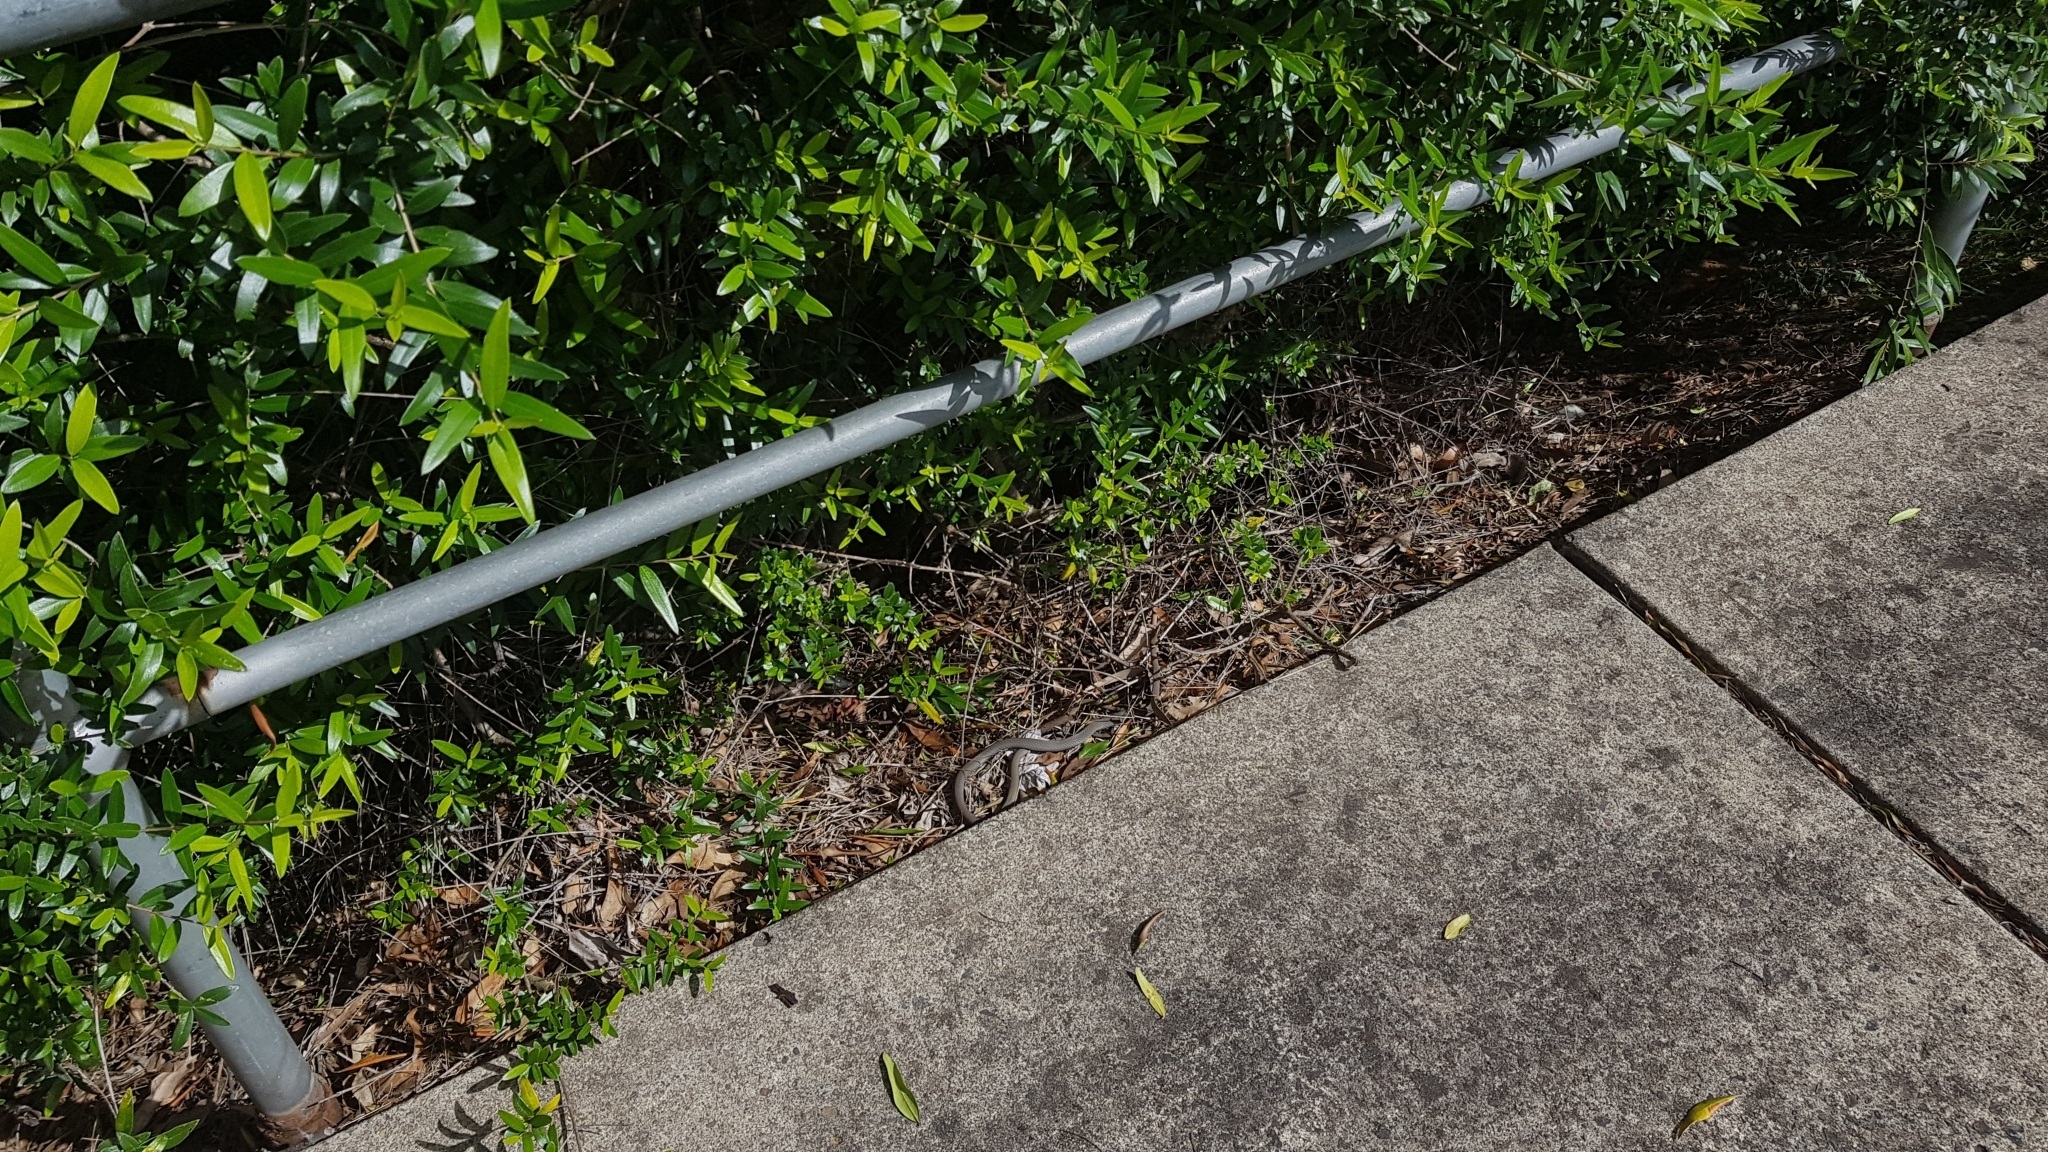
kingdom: Animalia
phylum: Chordata
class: Squamata
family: Elapidae
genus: Demansia
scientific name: Demansia psammophis
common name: Yellow-faced whip snake
